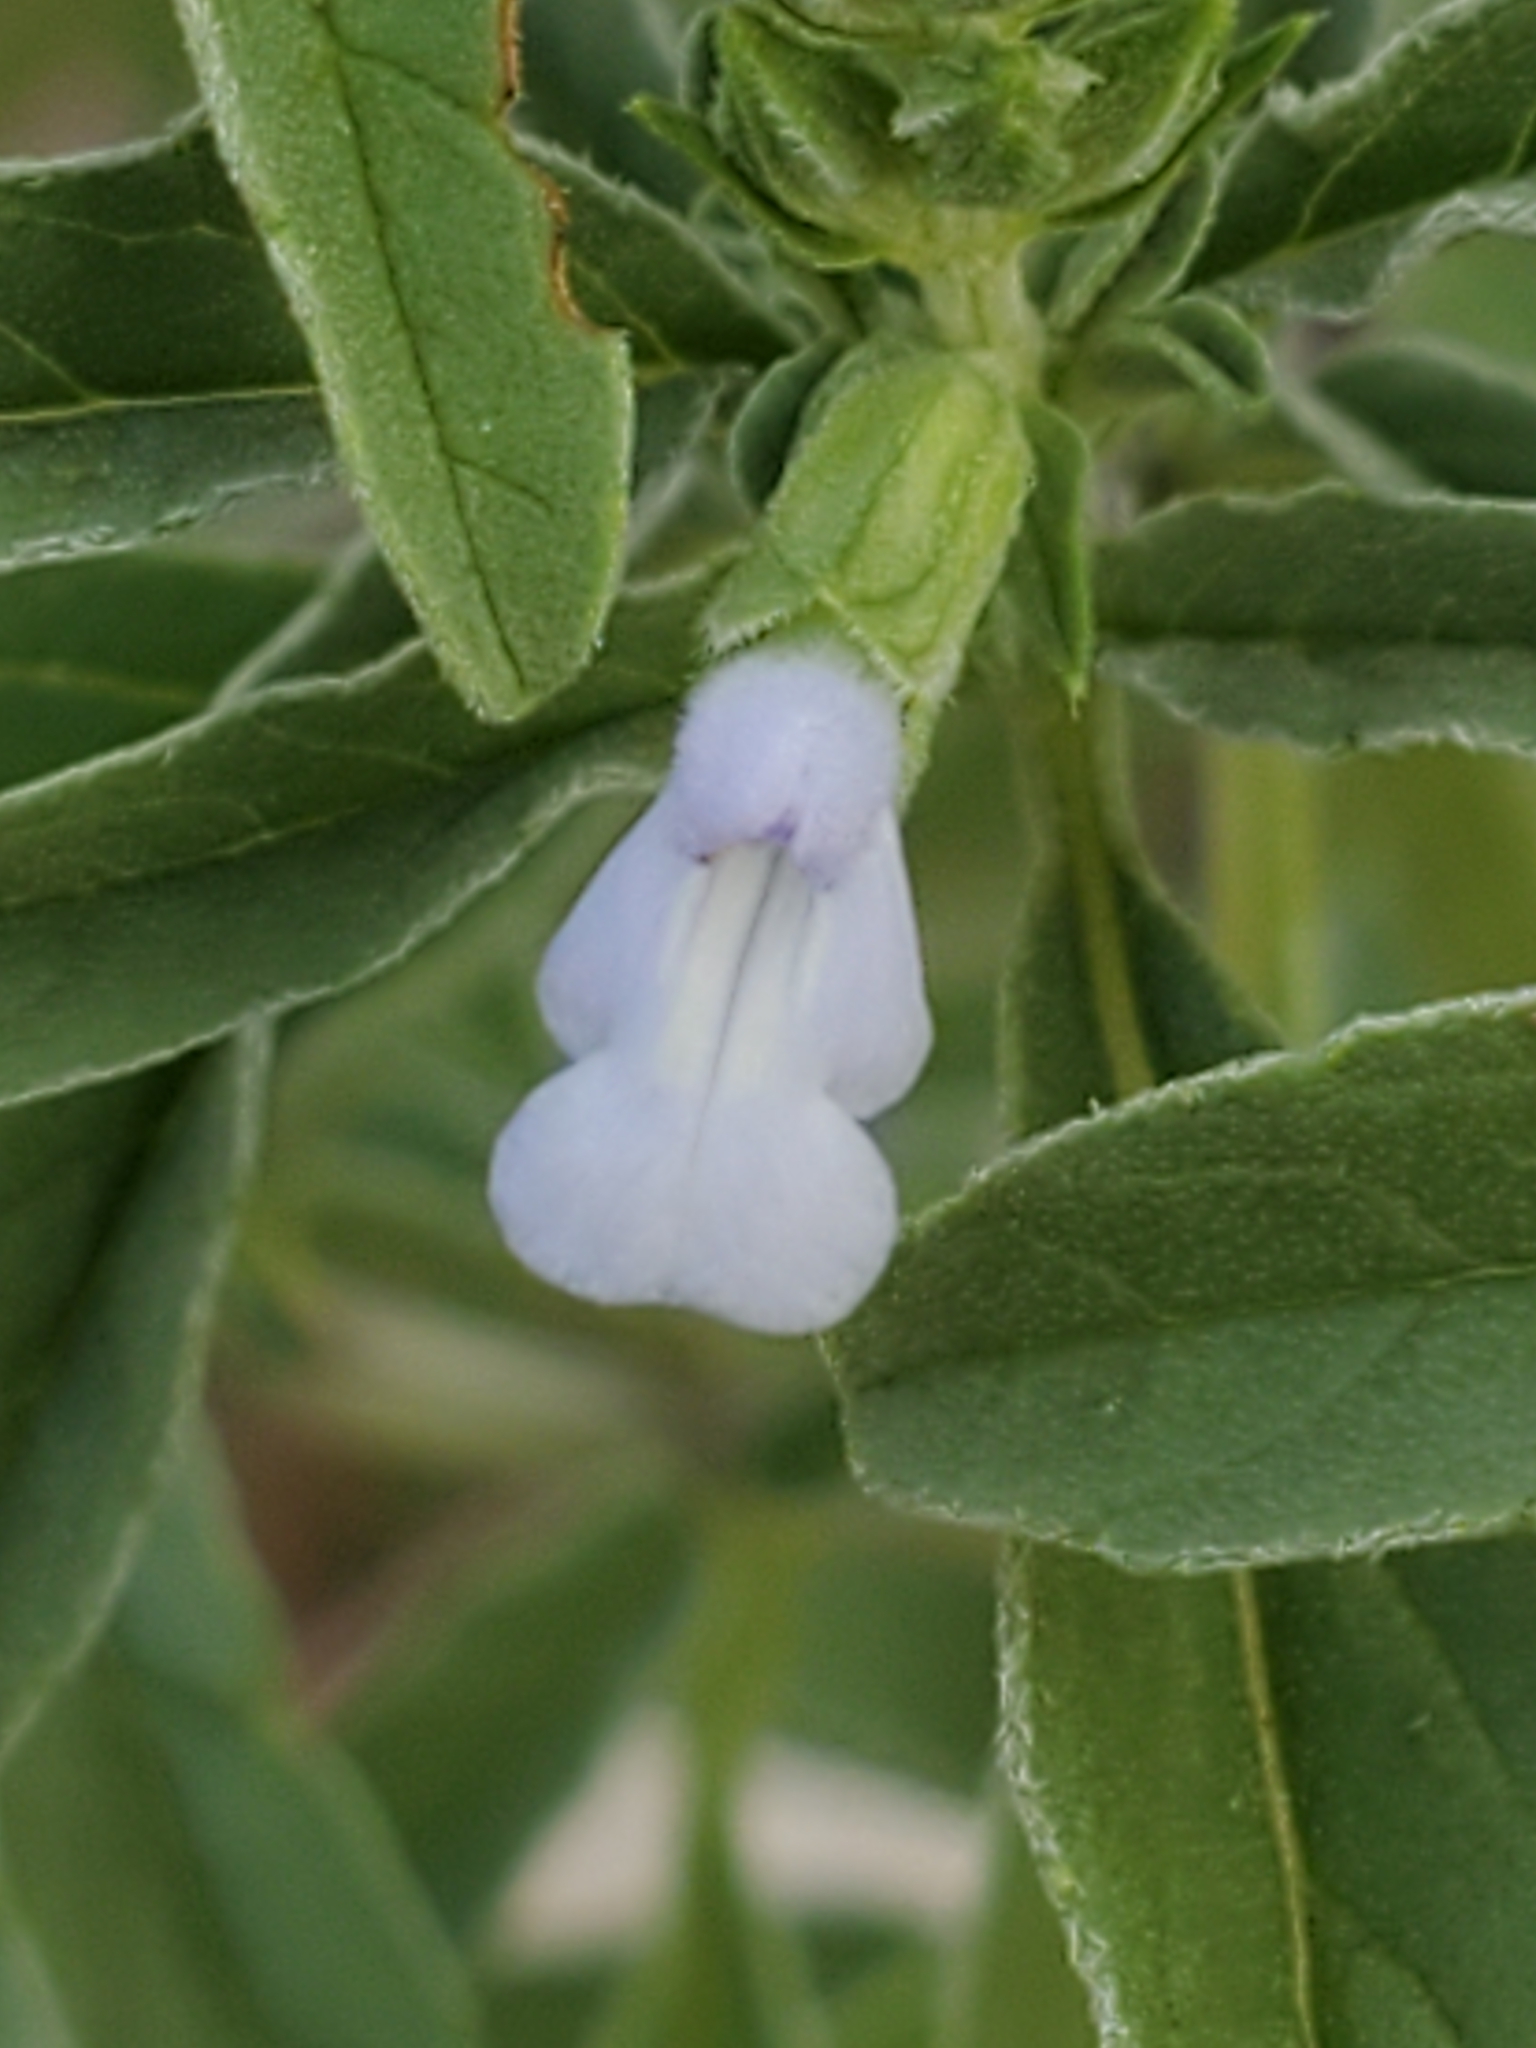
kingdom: Plantae
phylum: Tracheophyta
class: Magnoliopsida
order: Lamiales
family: Lamiaceae
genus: Salvia
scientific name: Salvia reflexa
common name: Mintweed
